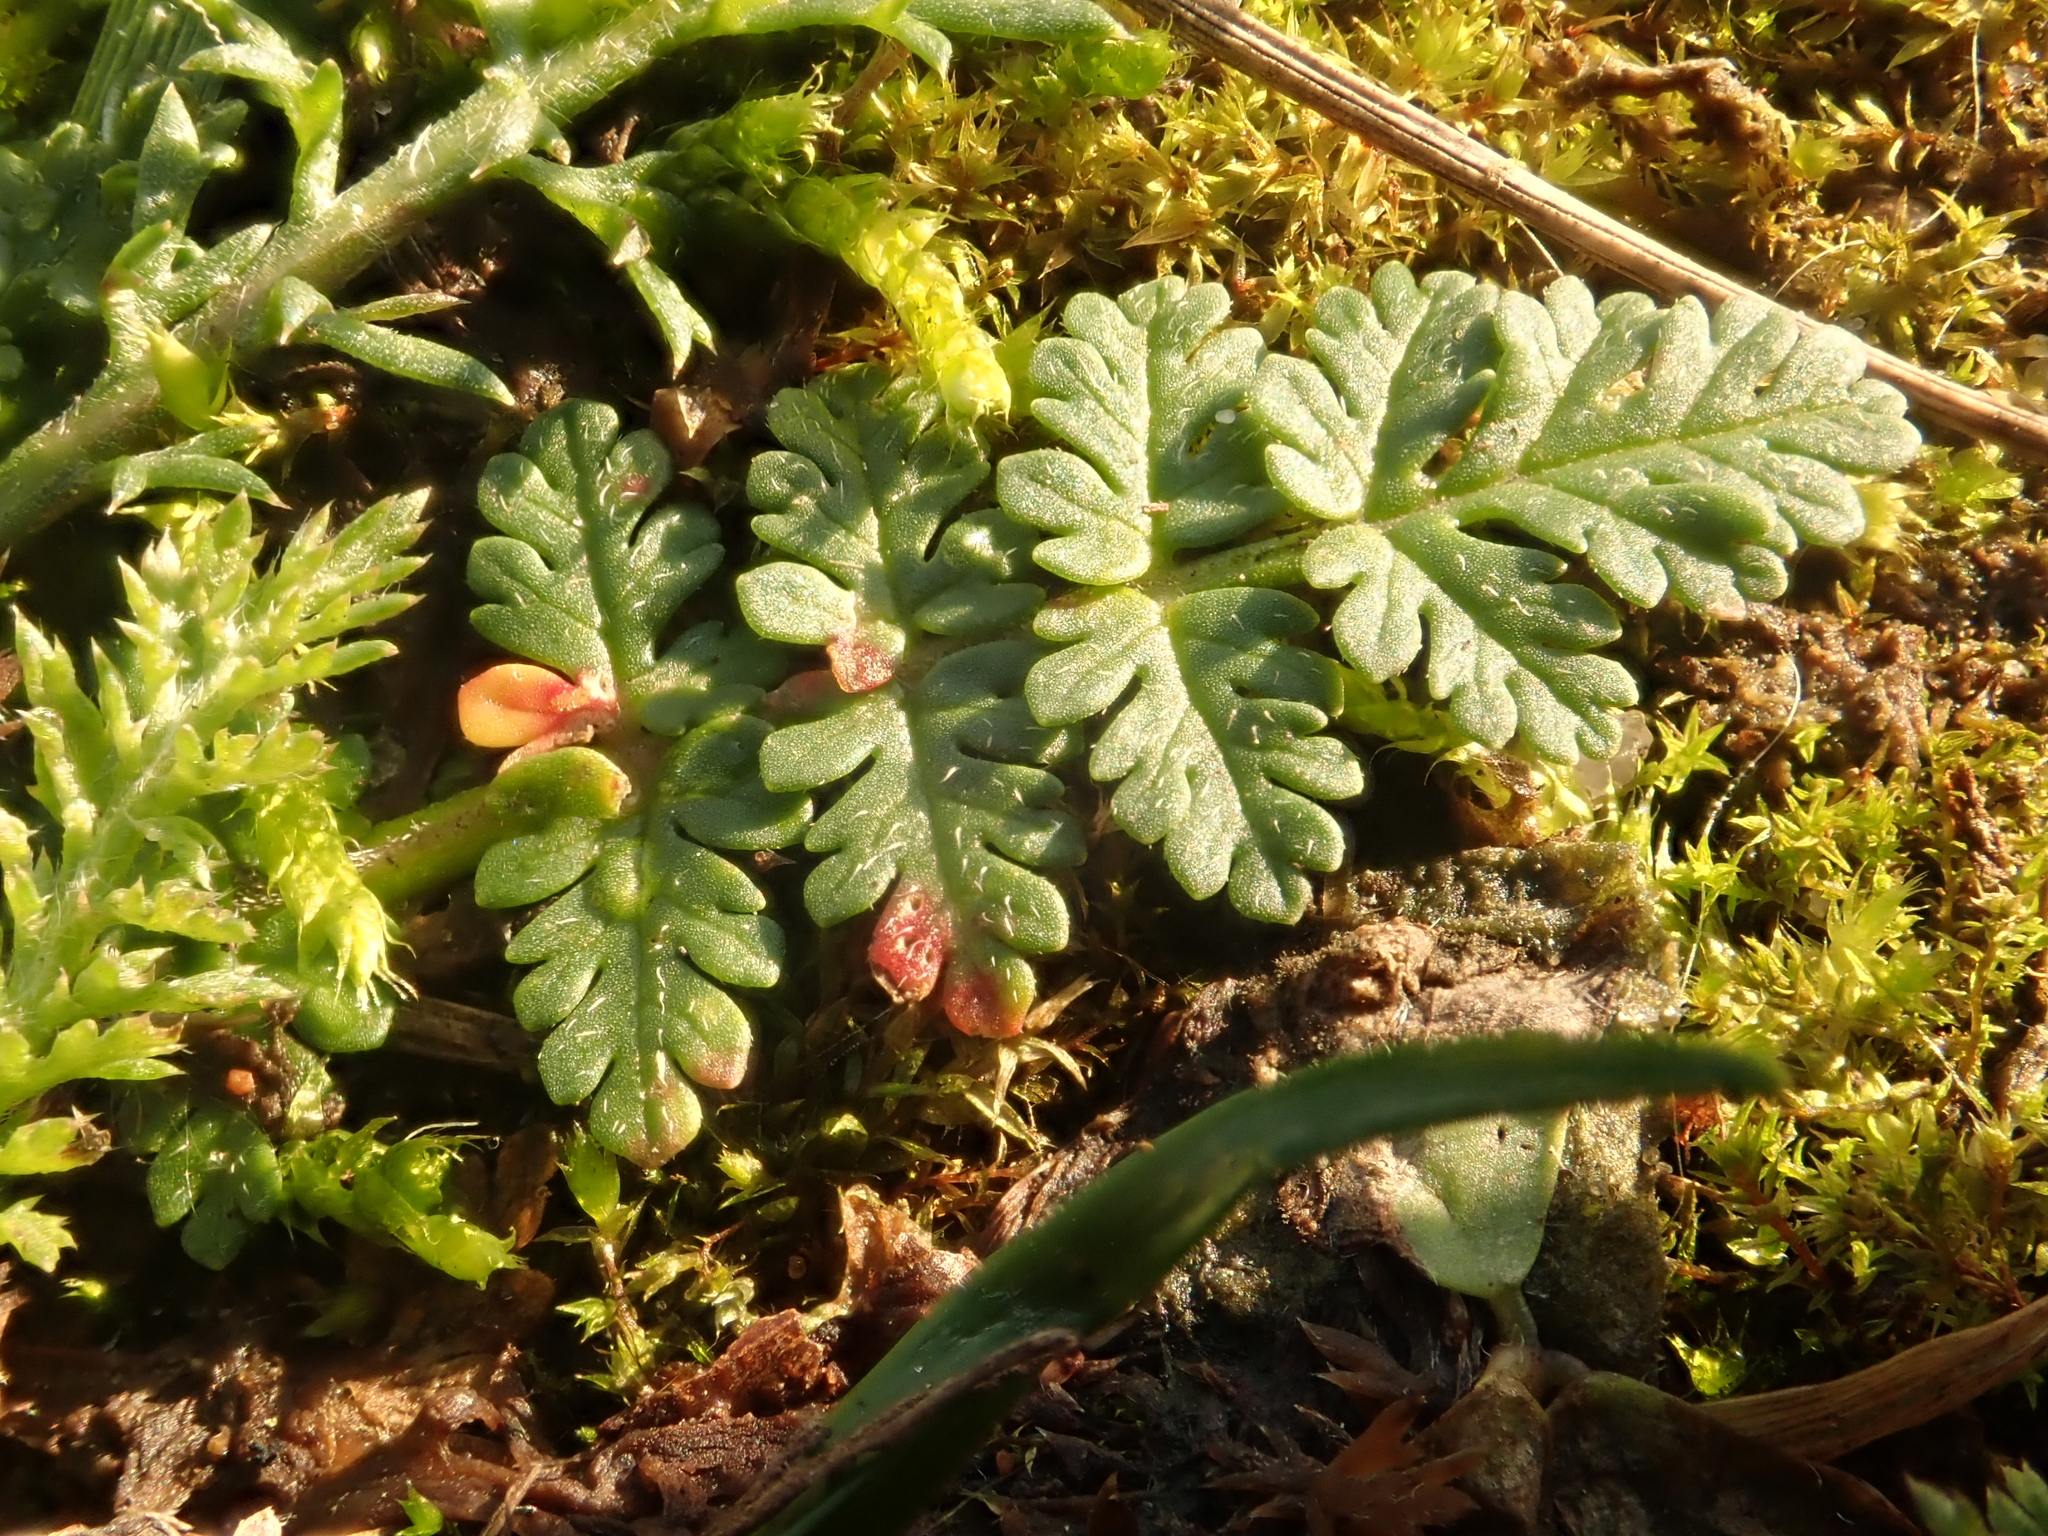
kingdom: Plantae
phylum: Tracheophyta
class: Magnoliopsida
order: Geraniales
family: Geraniaceae
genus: Erodium
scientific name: Erodium cicutarium
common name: Common stork's-bill
